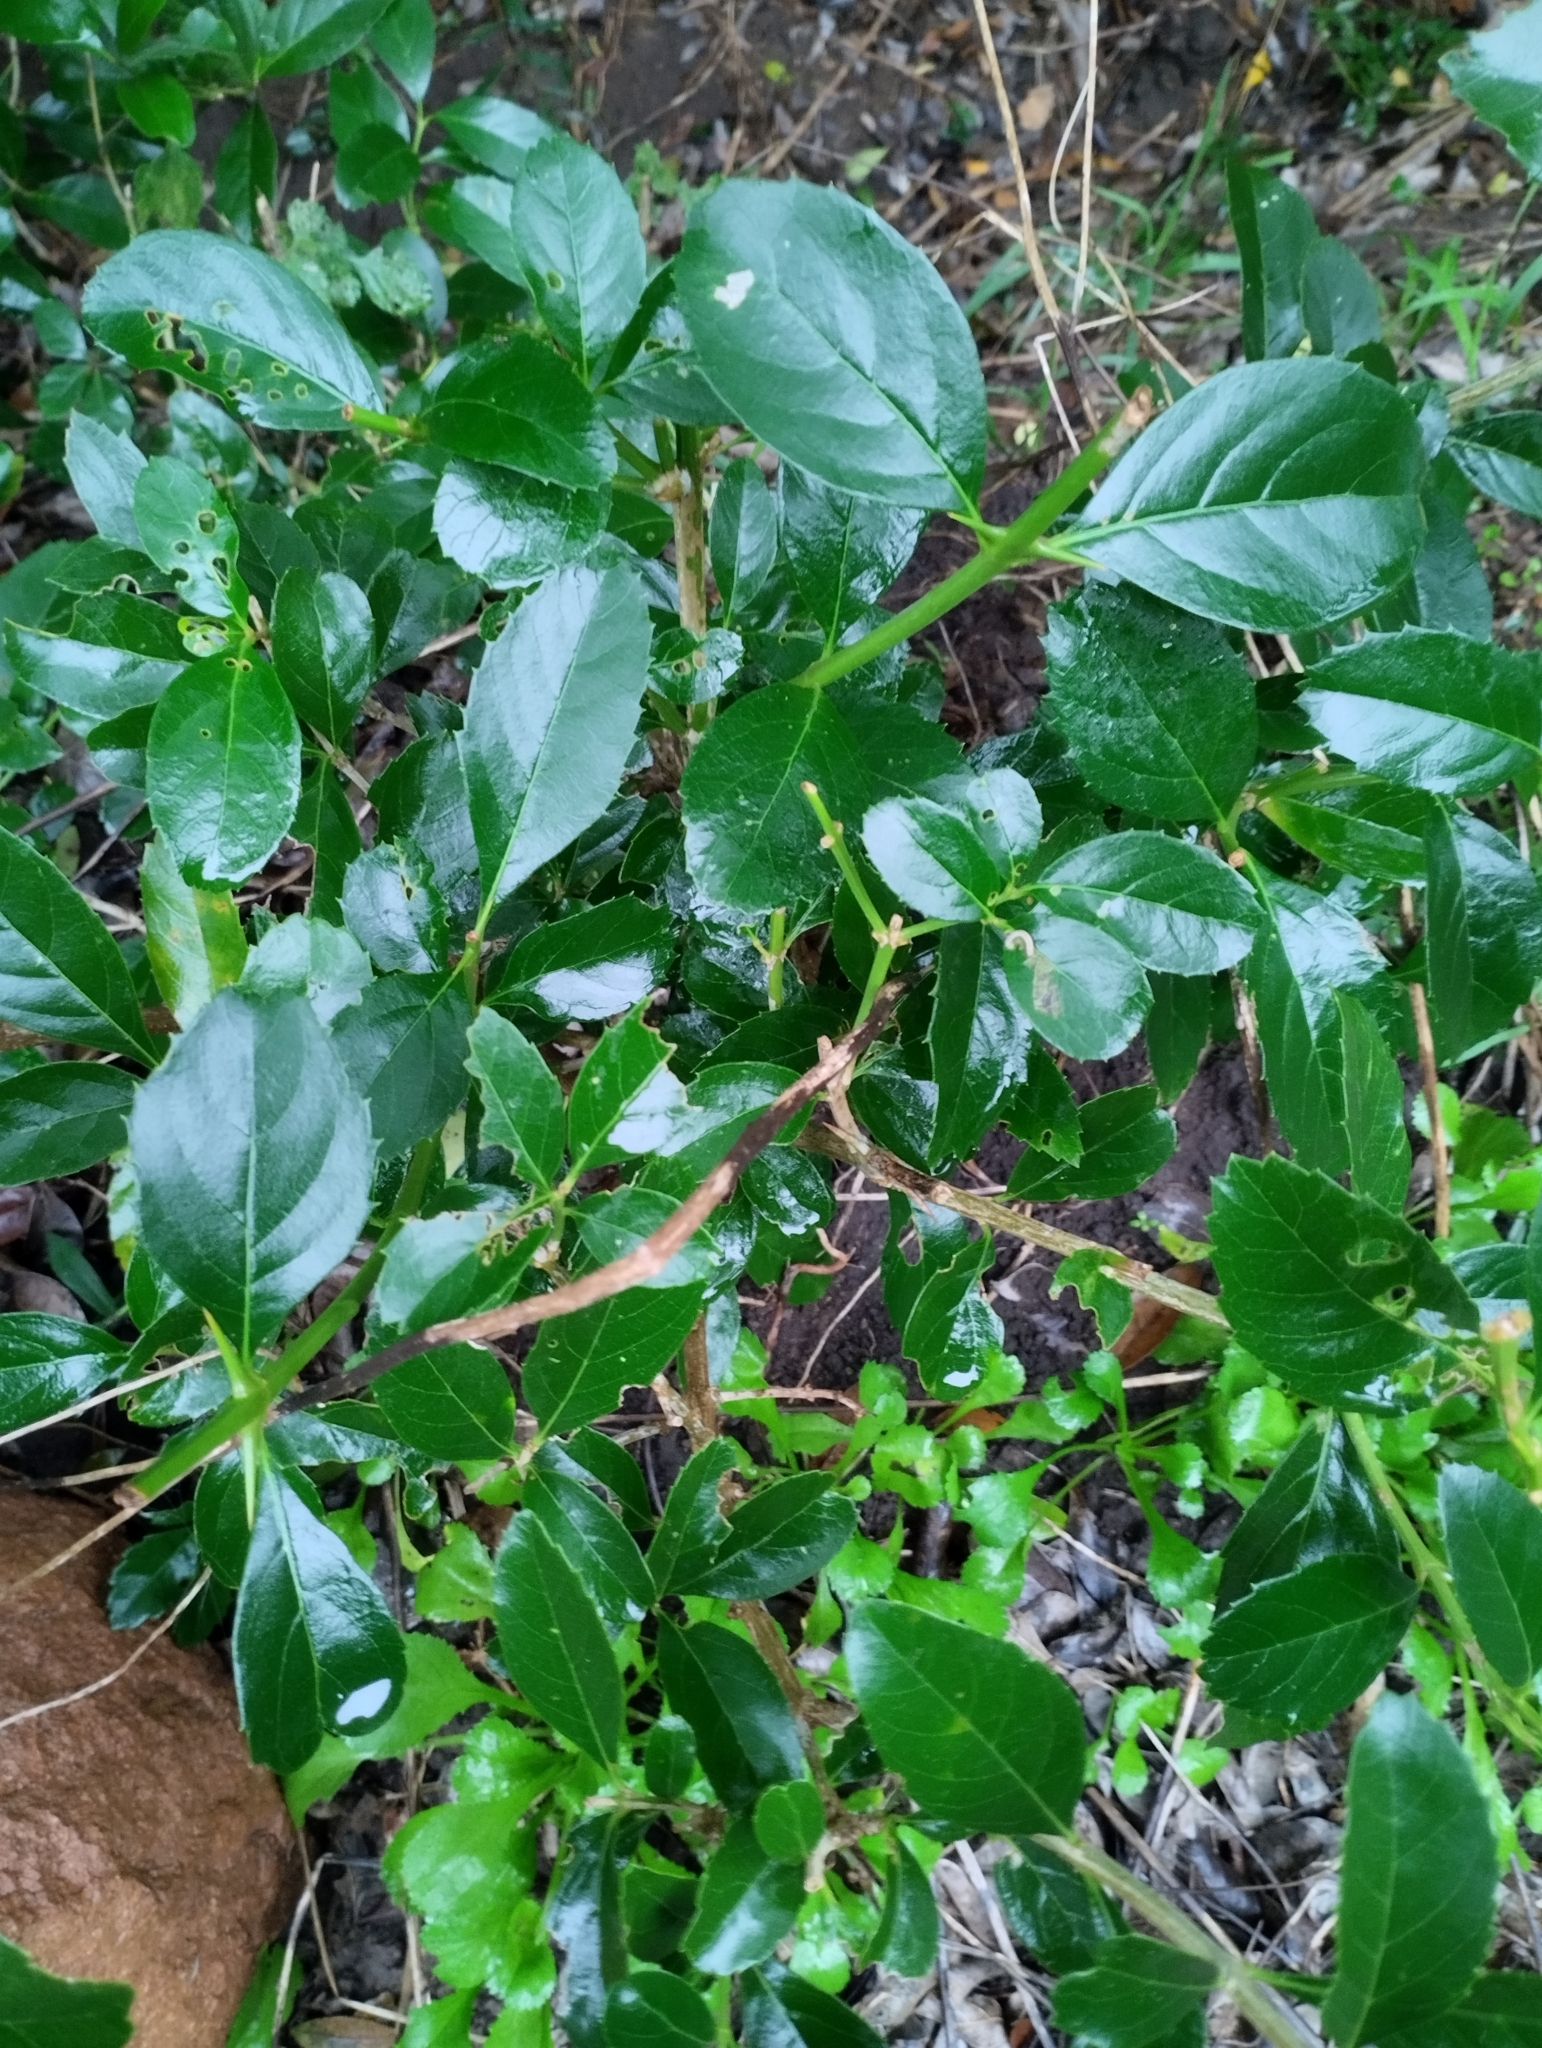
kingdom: Plantae
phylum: Tracheophyta
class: Magnoliopsida
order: Lamiales
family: Verbenaceae
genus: Citharexylum
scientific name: Citharexylum montevidense
